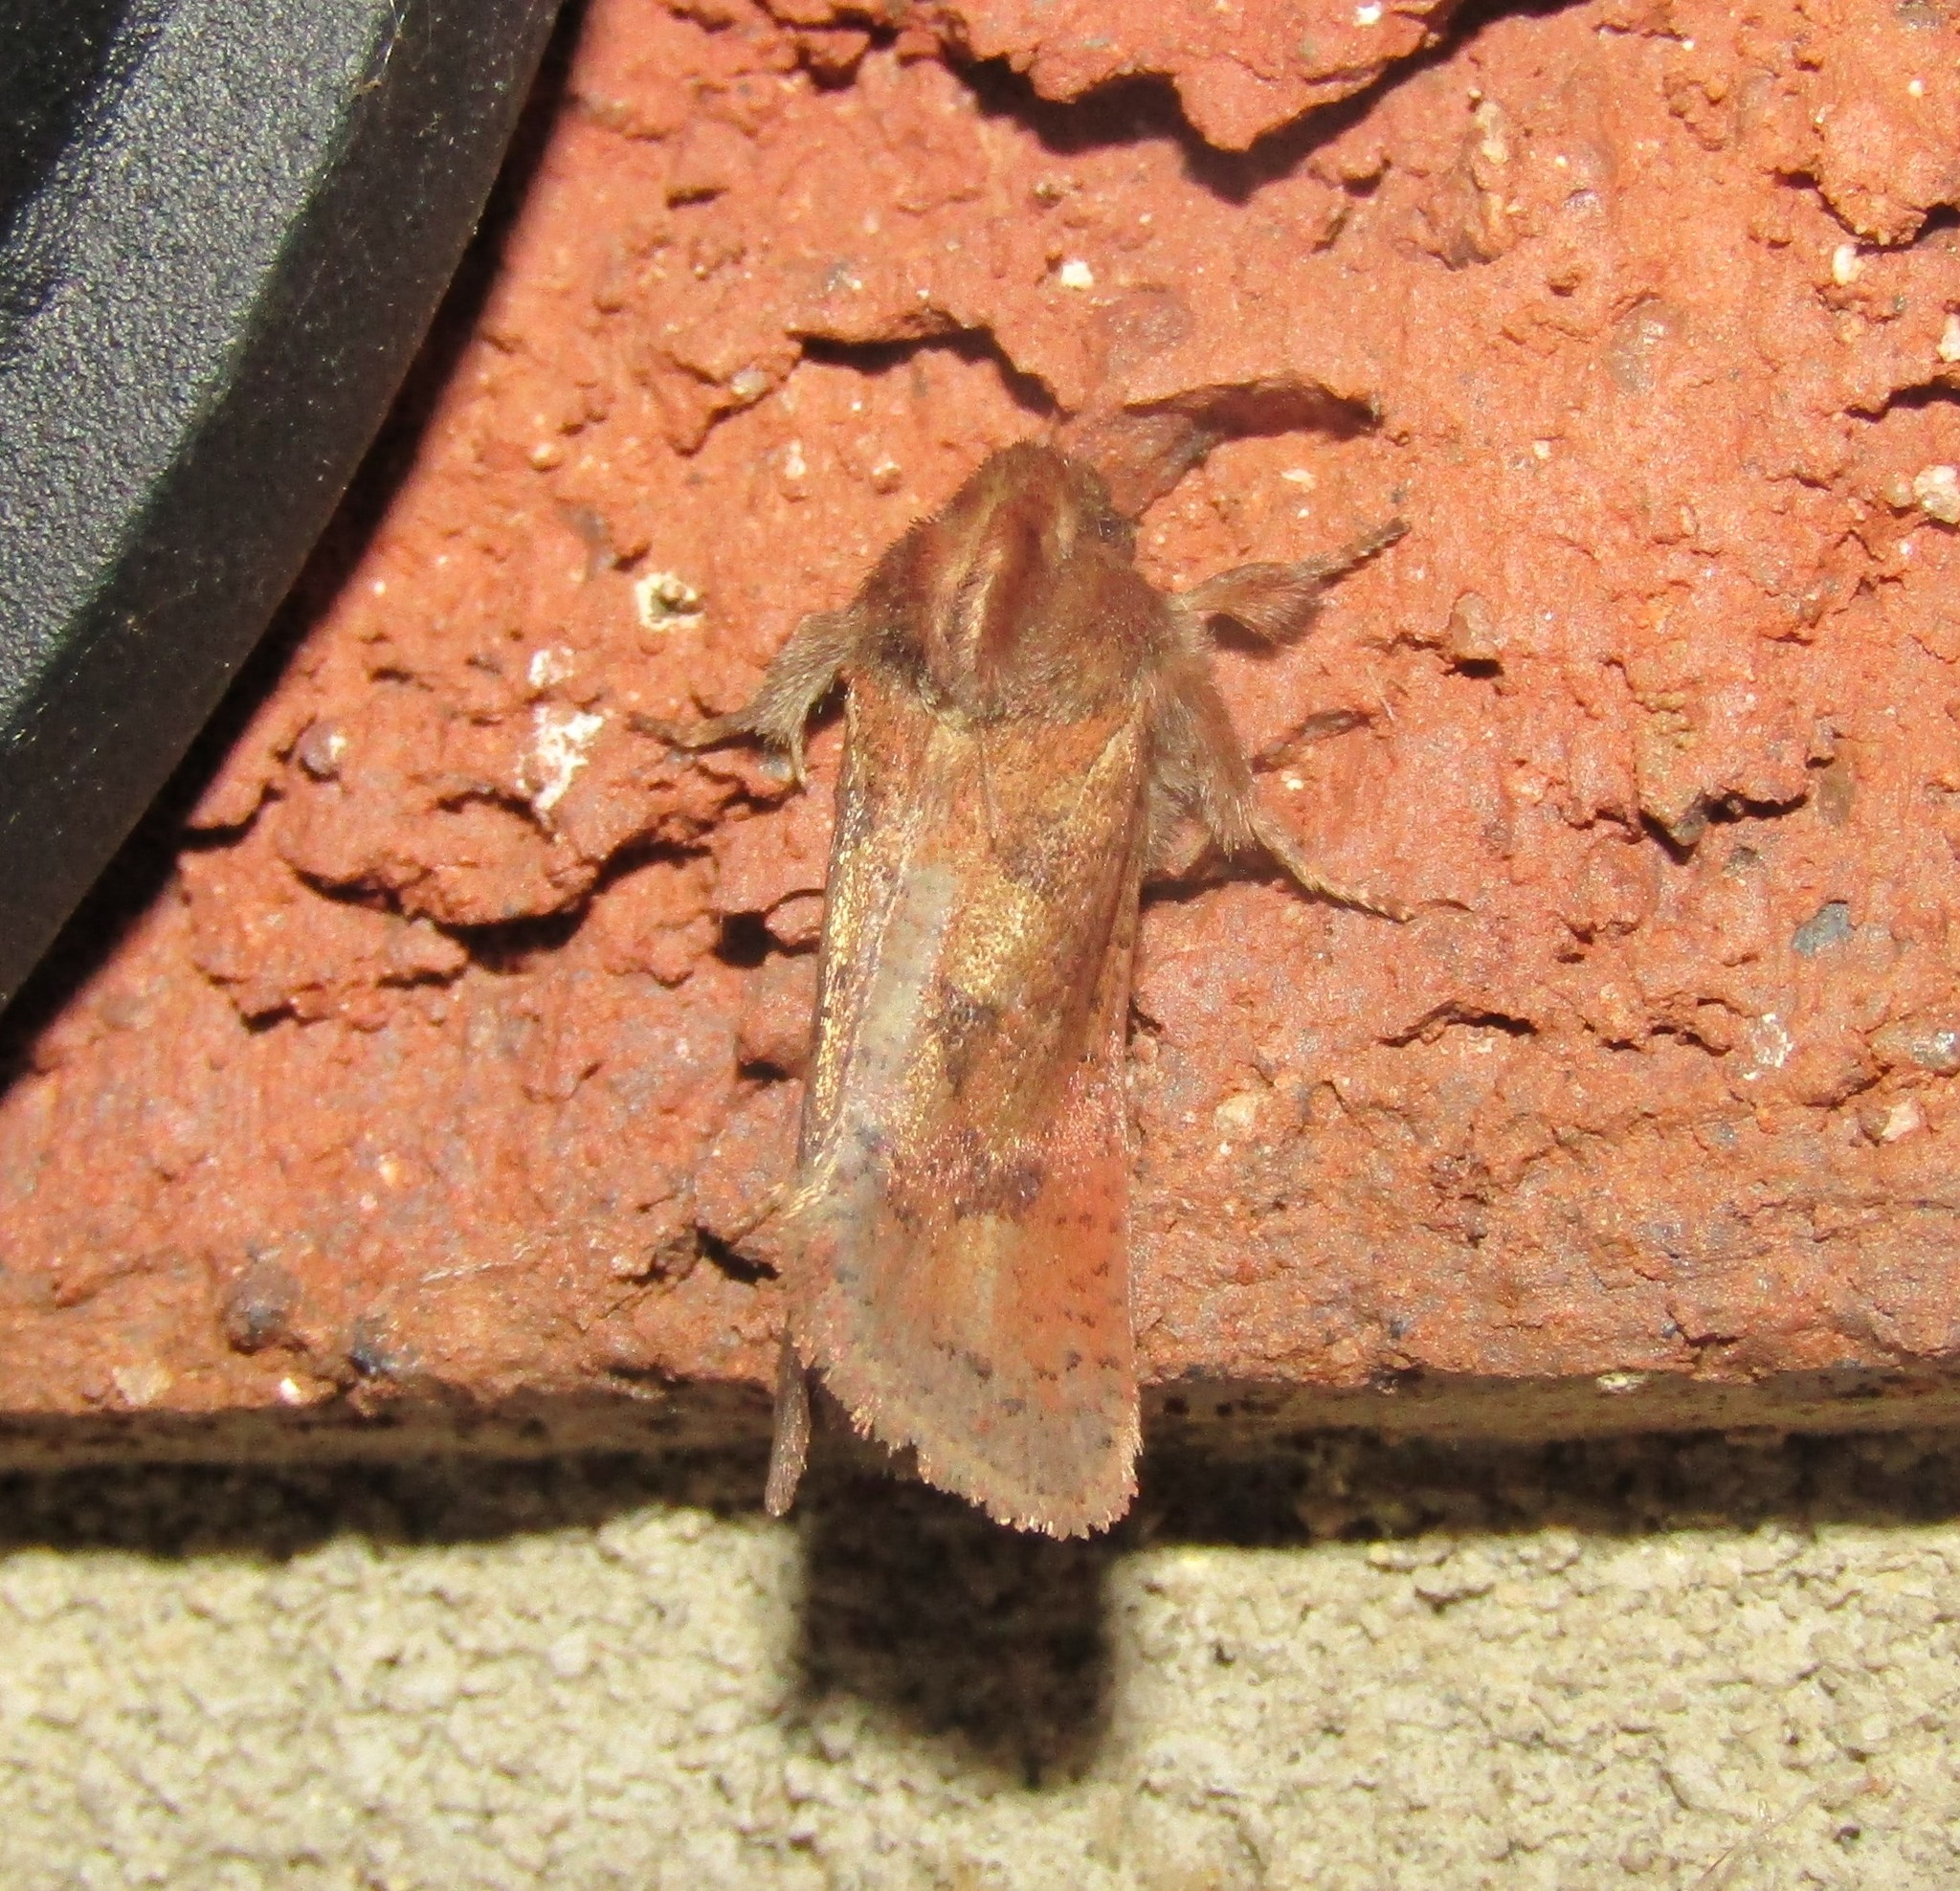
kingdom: Animalia
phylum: Arthropoda
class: Insecta
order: Lepidoptera
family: Tineidae
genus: Acrolophus
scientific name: Acrolophus plumifrontella
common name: Eastern grass tubeworm moth
